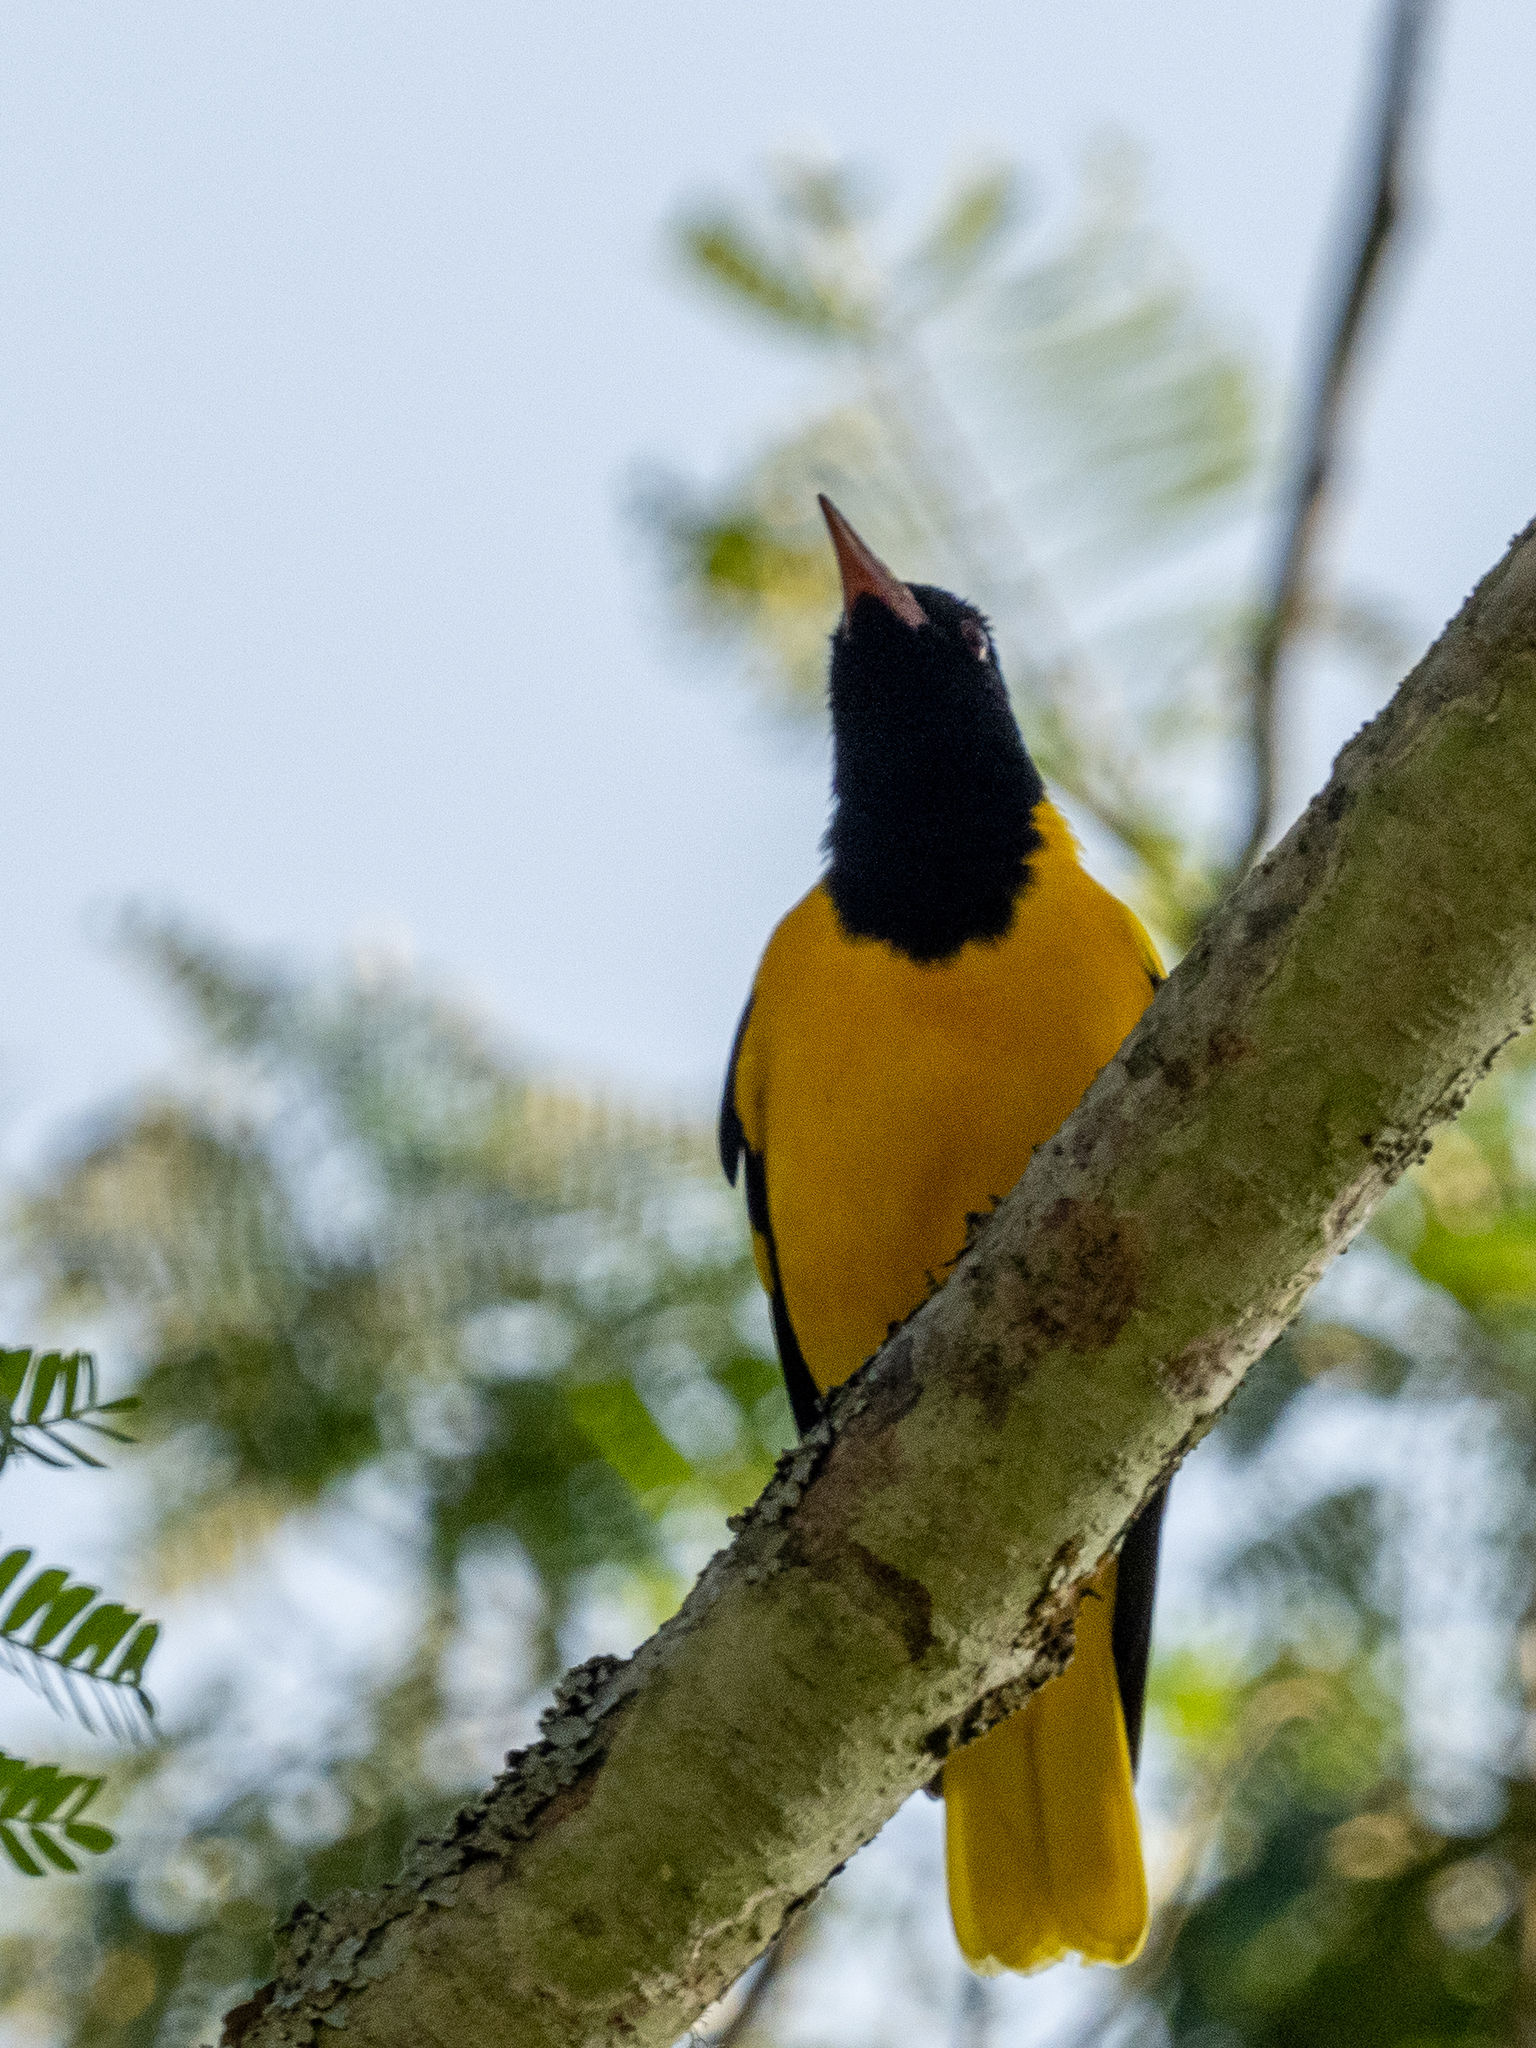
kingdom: Animalia
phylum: Chordata
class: Aves
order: Passeriformes
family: Oriolidae
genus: Oriolus
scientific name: Oriolus xanthornus
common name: Black-hooded oriole
